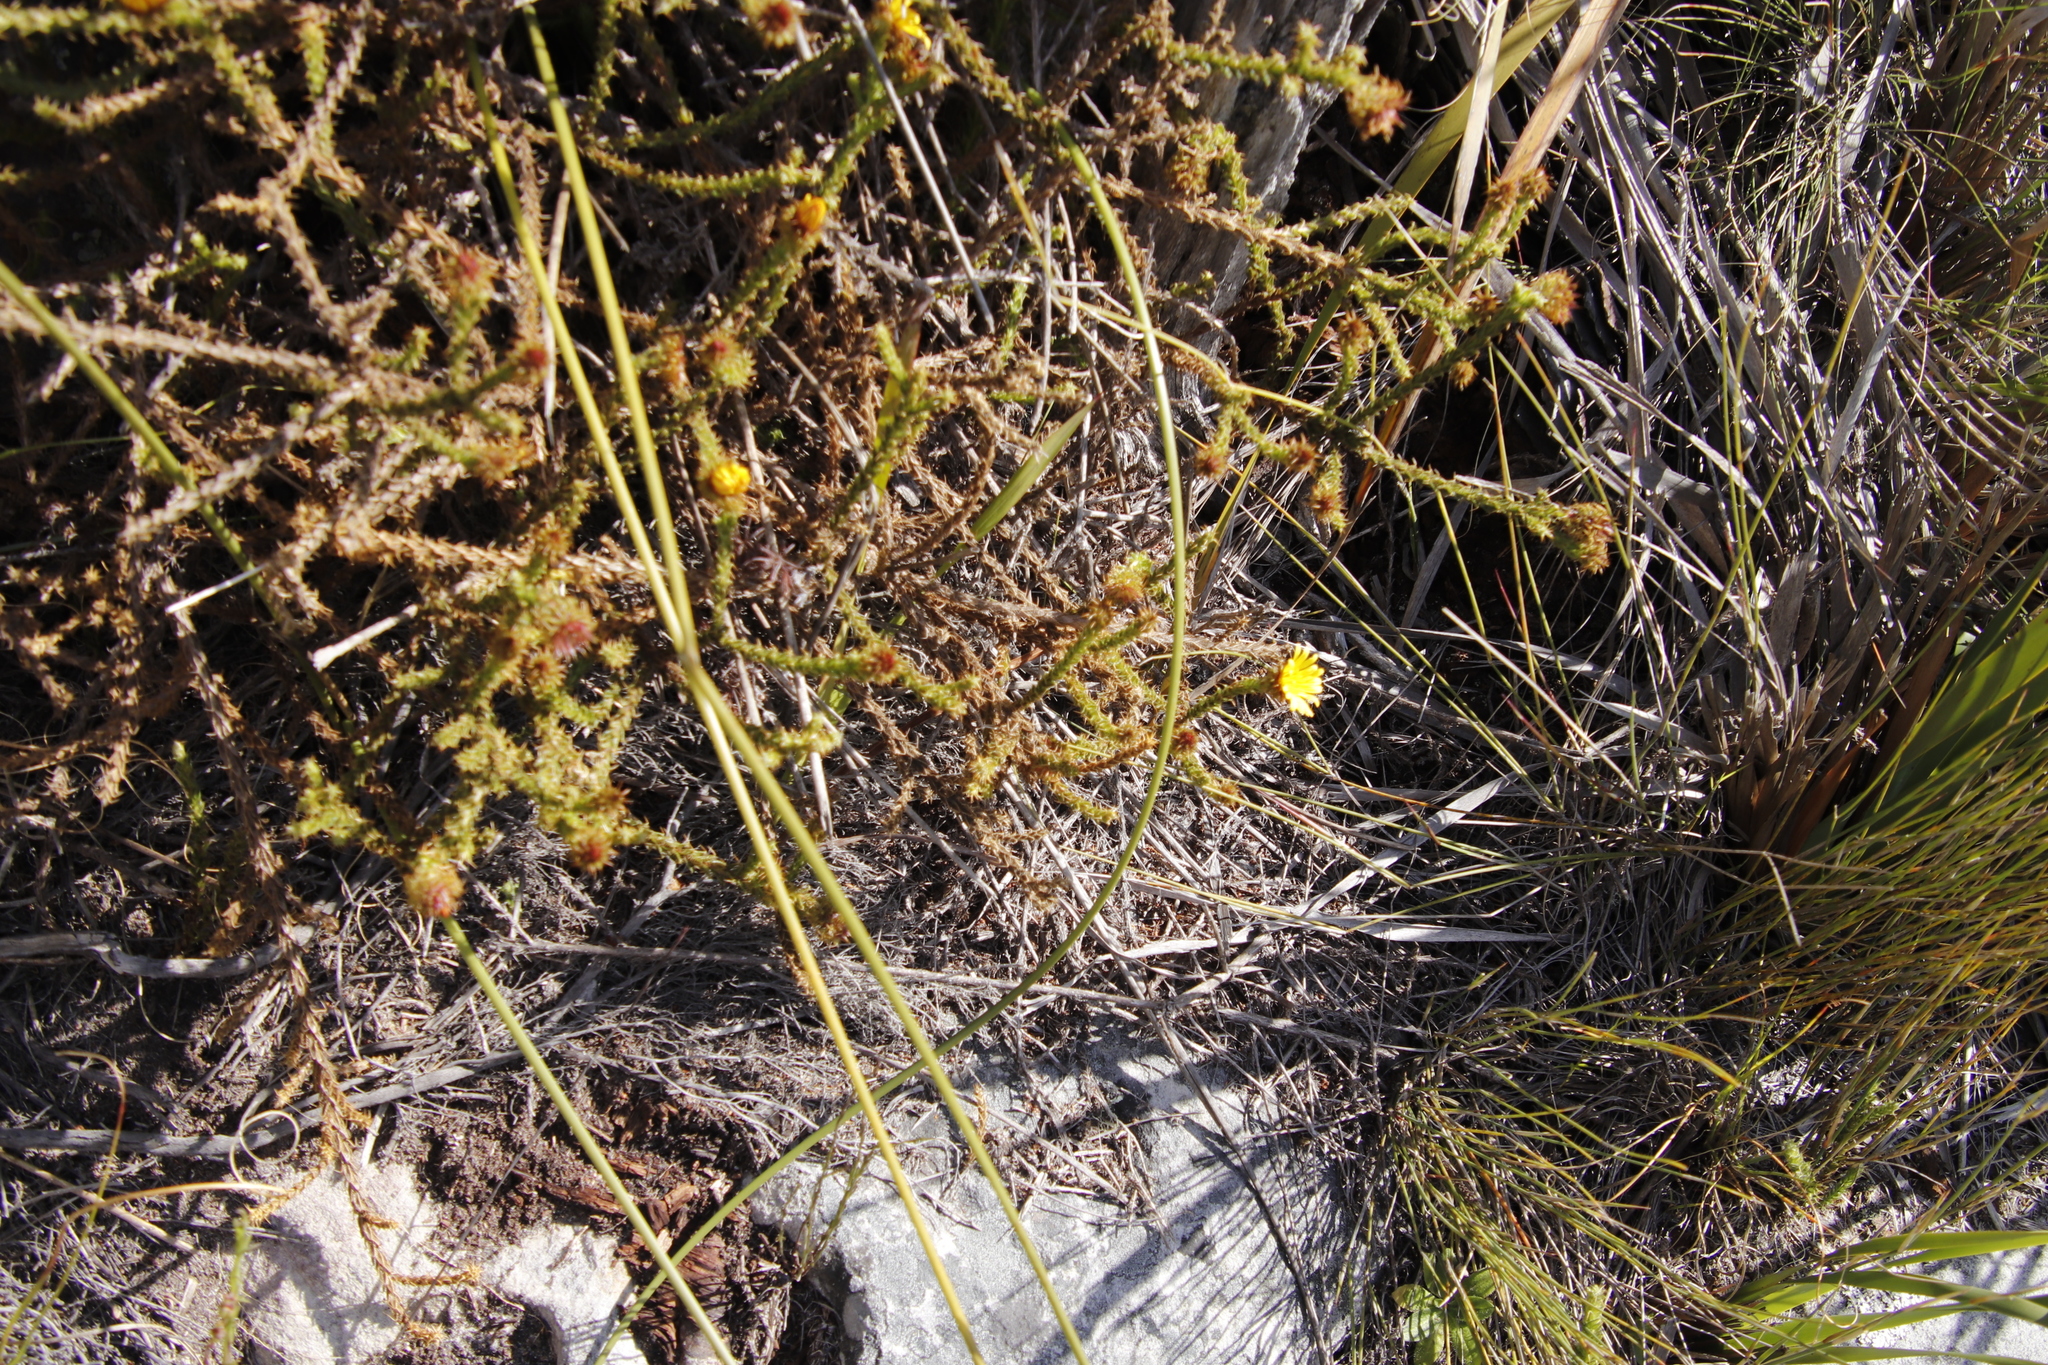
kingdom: Plantae
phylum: Tracheophyta
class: Magnoliopsida
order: Asterales
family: Asteraceae
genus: Cullumia
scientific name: Cullumia reticulata
